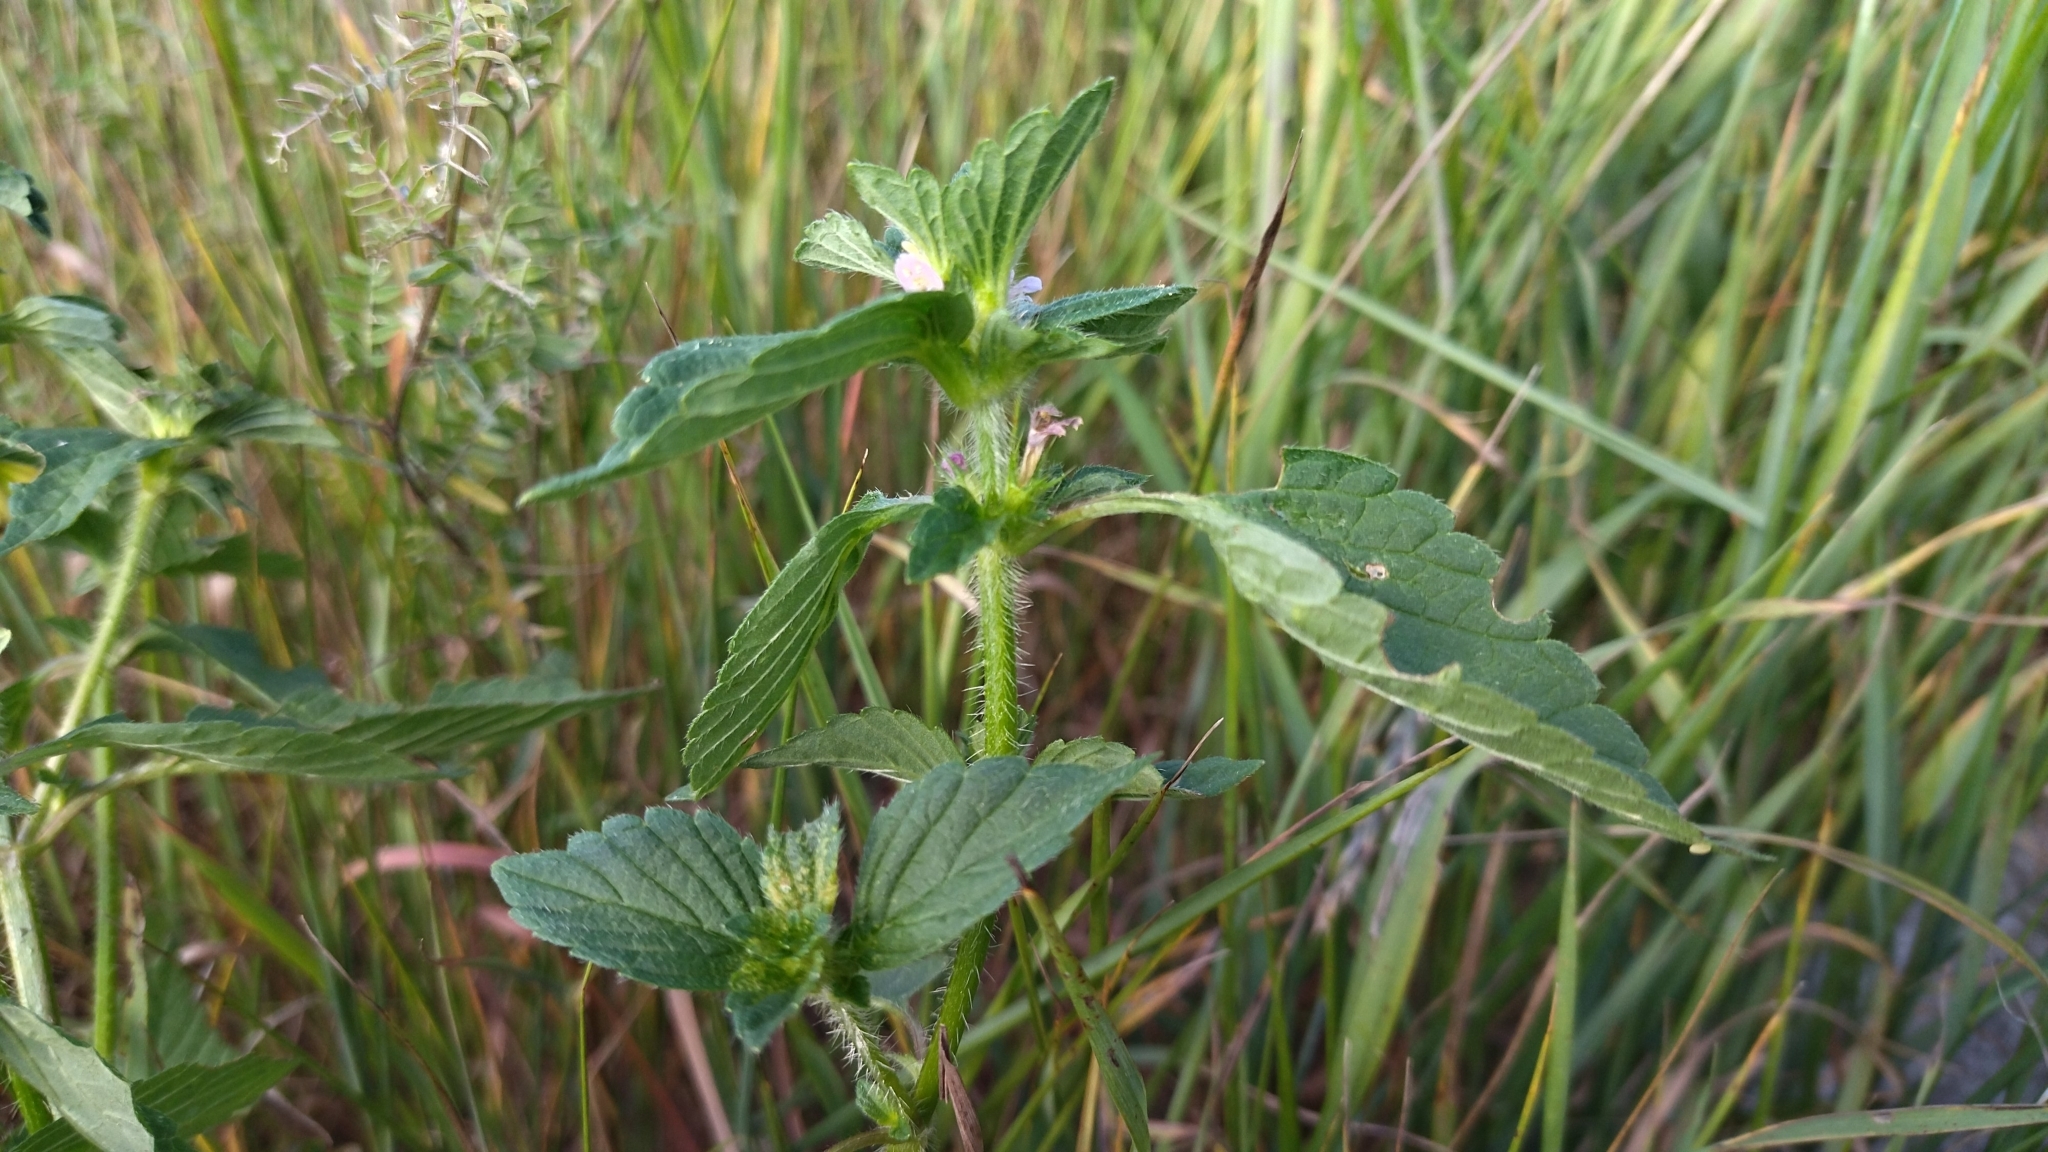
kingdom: Plantae
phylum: Tracheophyta
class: Magnoliopsida
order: Lamiales
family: Lamiaceae
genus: Galeopsis
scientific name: Galeopsis bifida
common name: Bifid hemp-nettle
